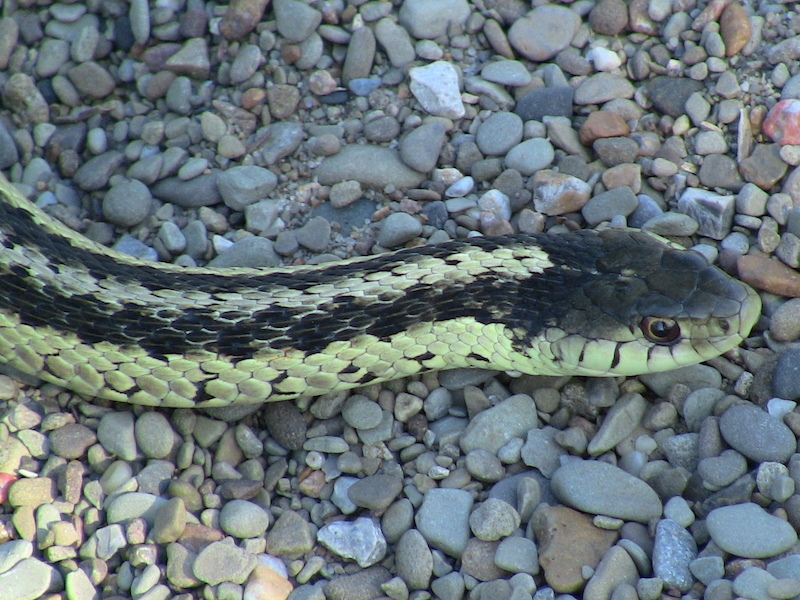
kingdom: Animalia
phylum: Chordata
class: Squamata
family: Colubridae
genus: Thamnophis
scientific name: Thamnophis sirtalis
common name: Common garter snake
